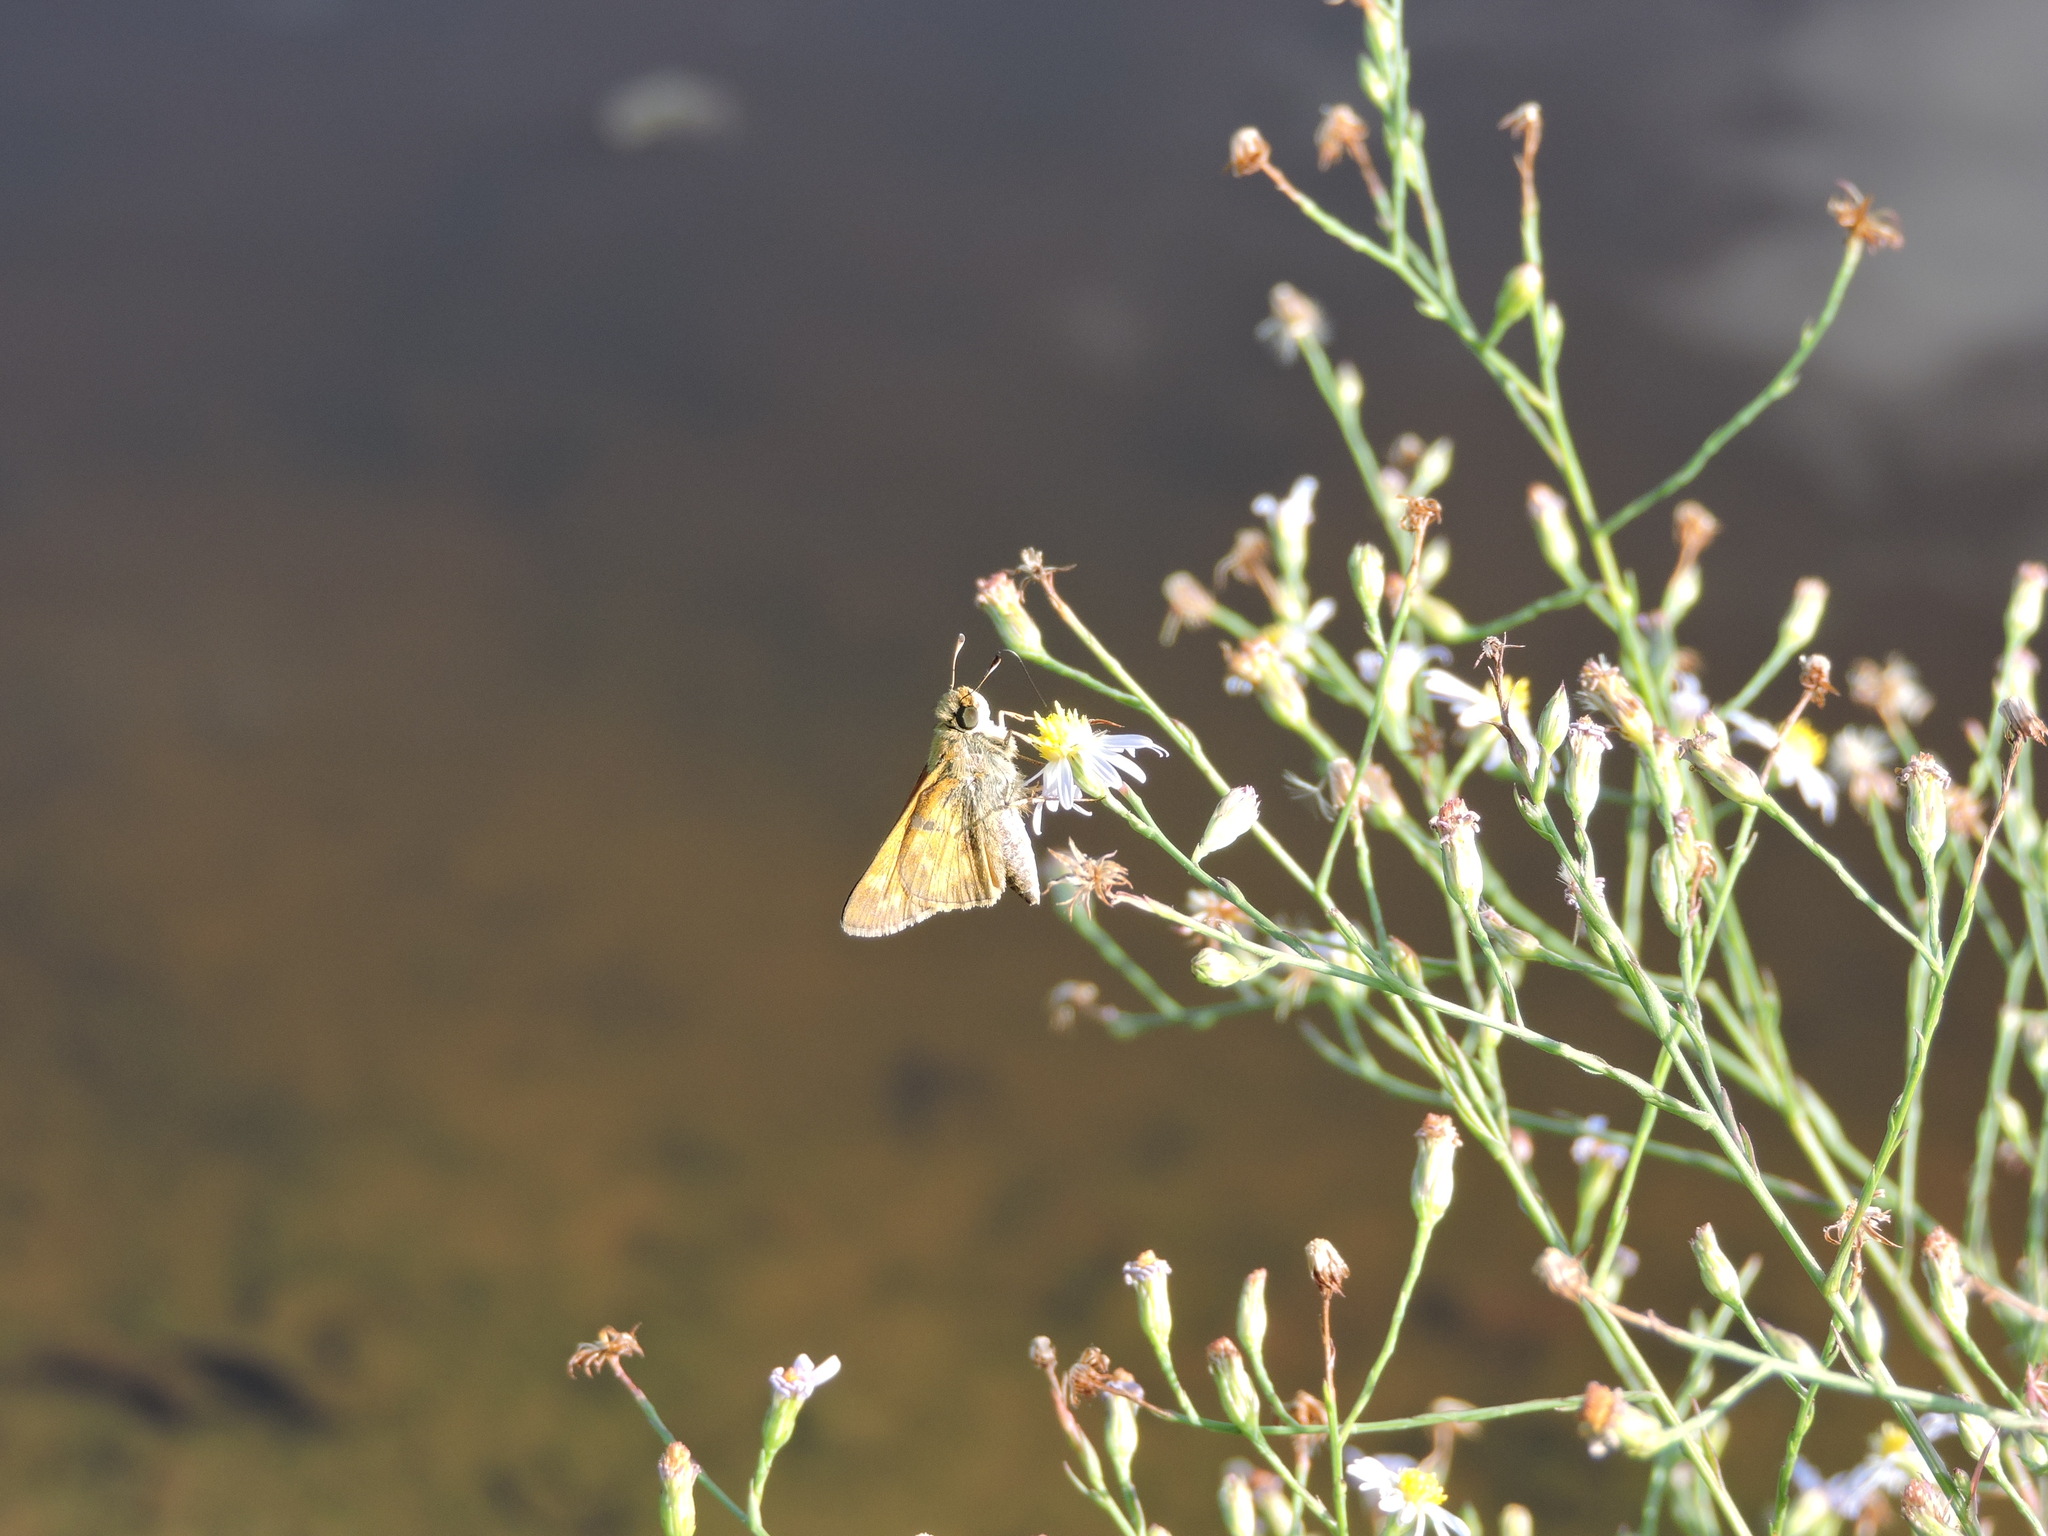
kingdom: Animalia
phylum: Arthropoda
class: Insecta
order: Lepidoptera
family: Hesperiidae
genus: Atalopedes
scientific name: Atalopedes
